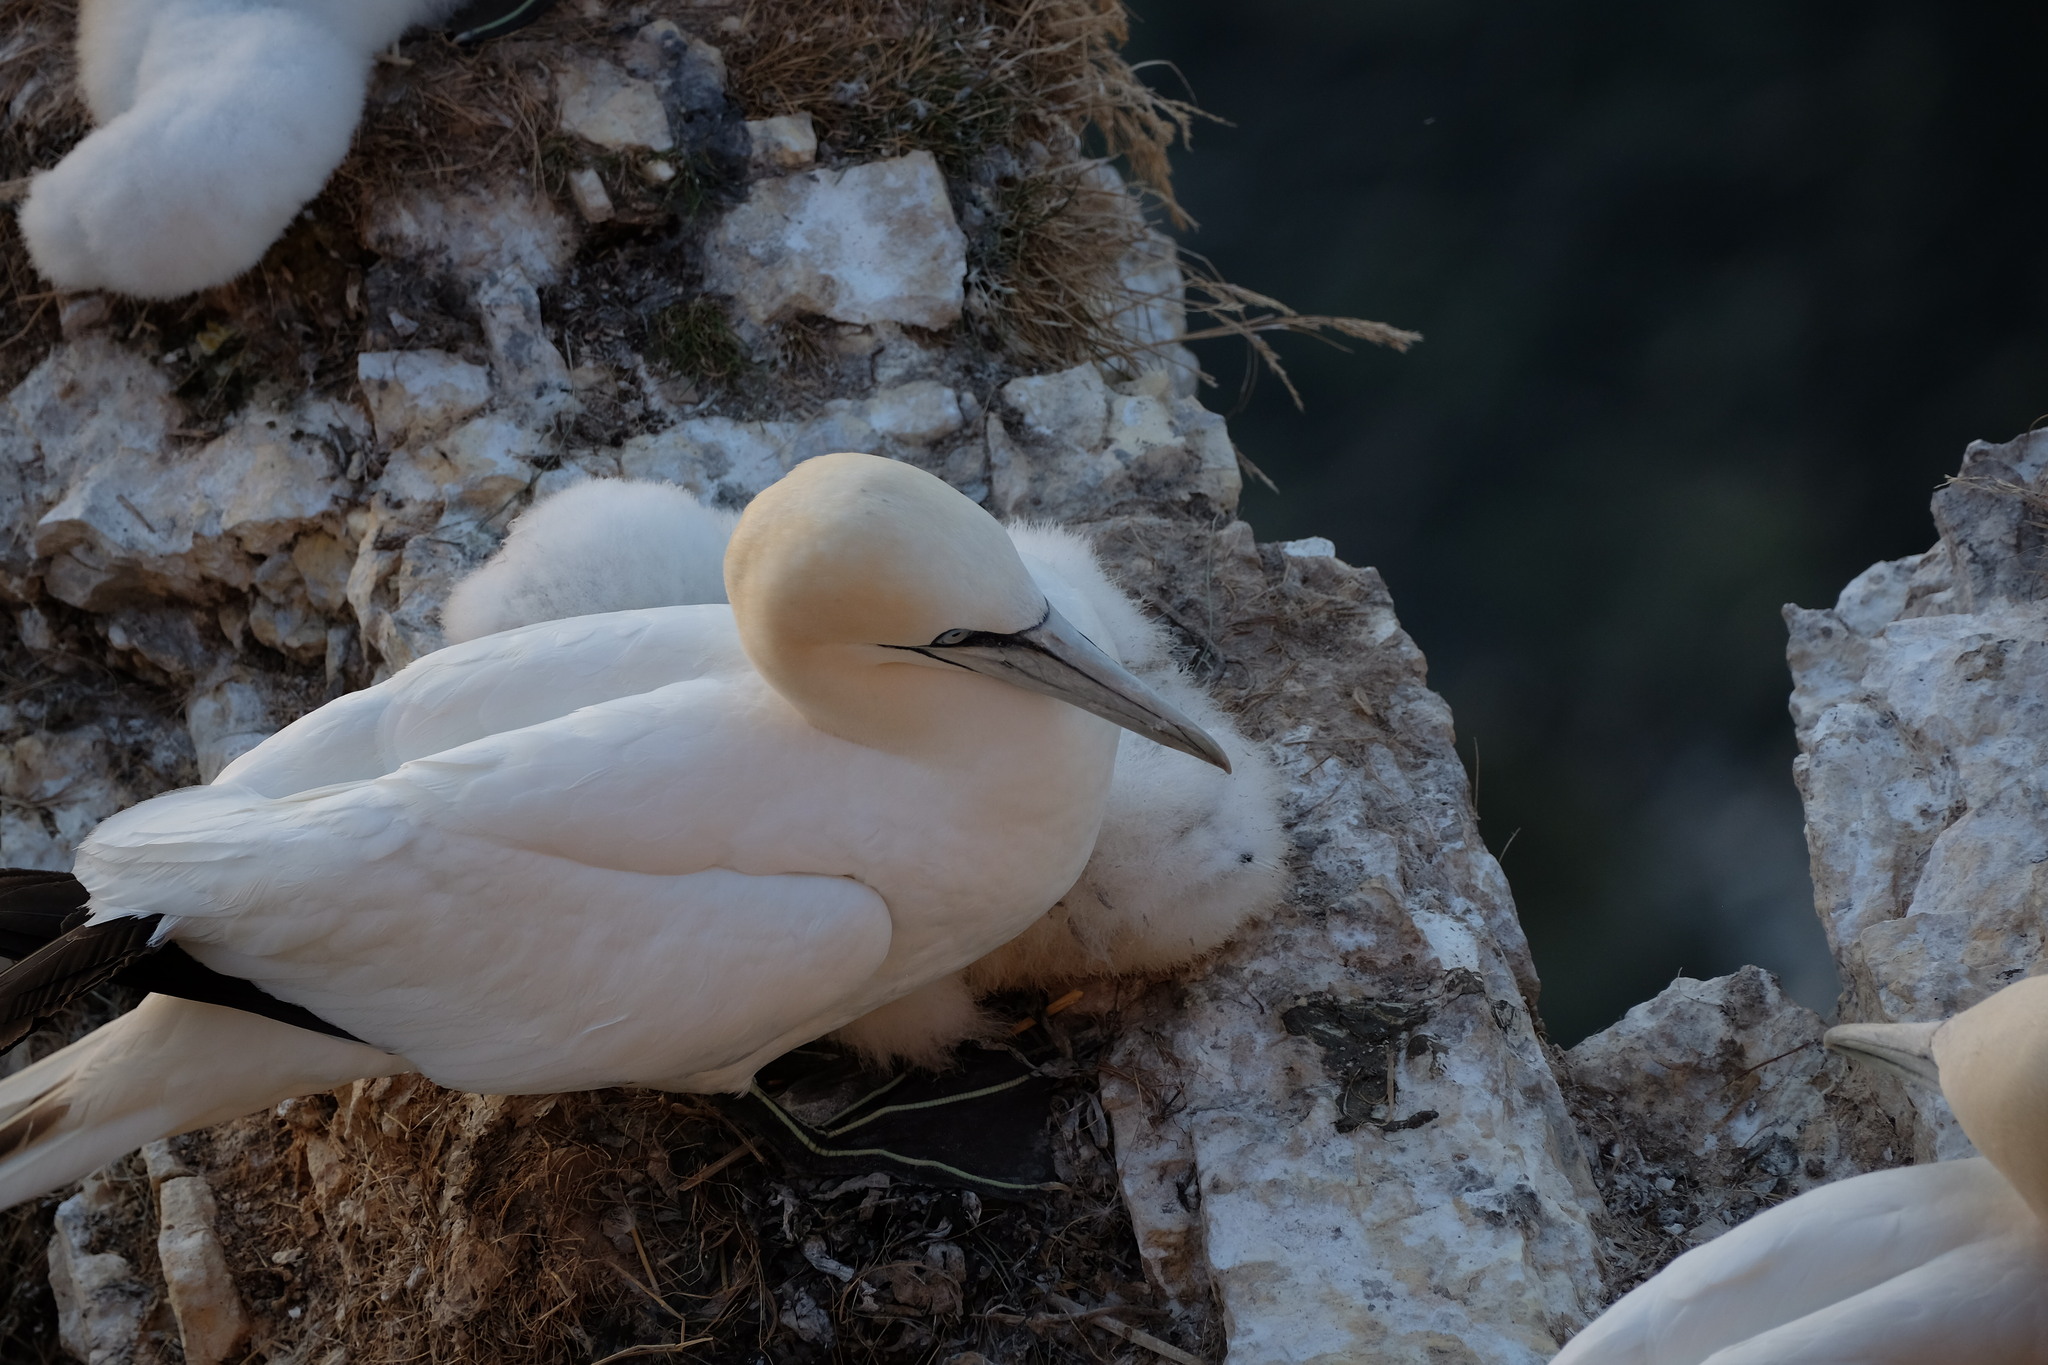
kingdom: Animalia
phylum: Chordata
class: Aves
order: Suliformes
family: Sulidae
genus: Morus
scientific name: Morus bassanus
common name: Northern gannet
